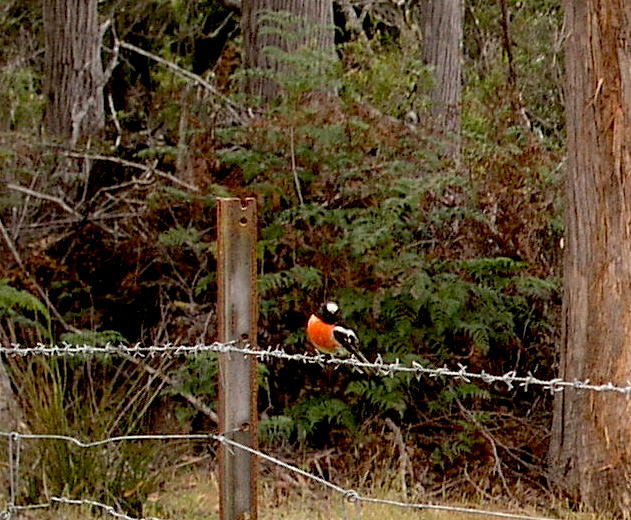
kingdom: Animalia
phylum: Chordata
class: Aves
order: Passeriformes
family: Petroicidae
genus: Petroica
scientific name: Petroica boodang
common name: Scarlet robin
